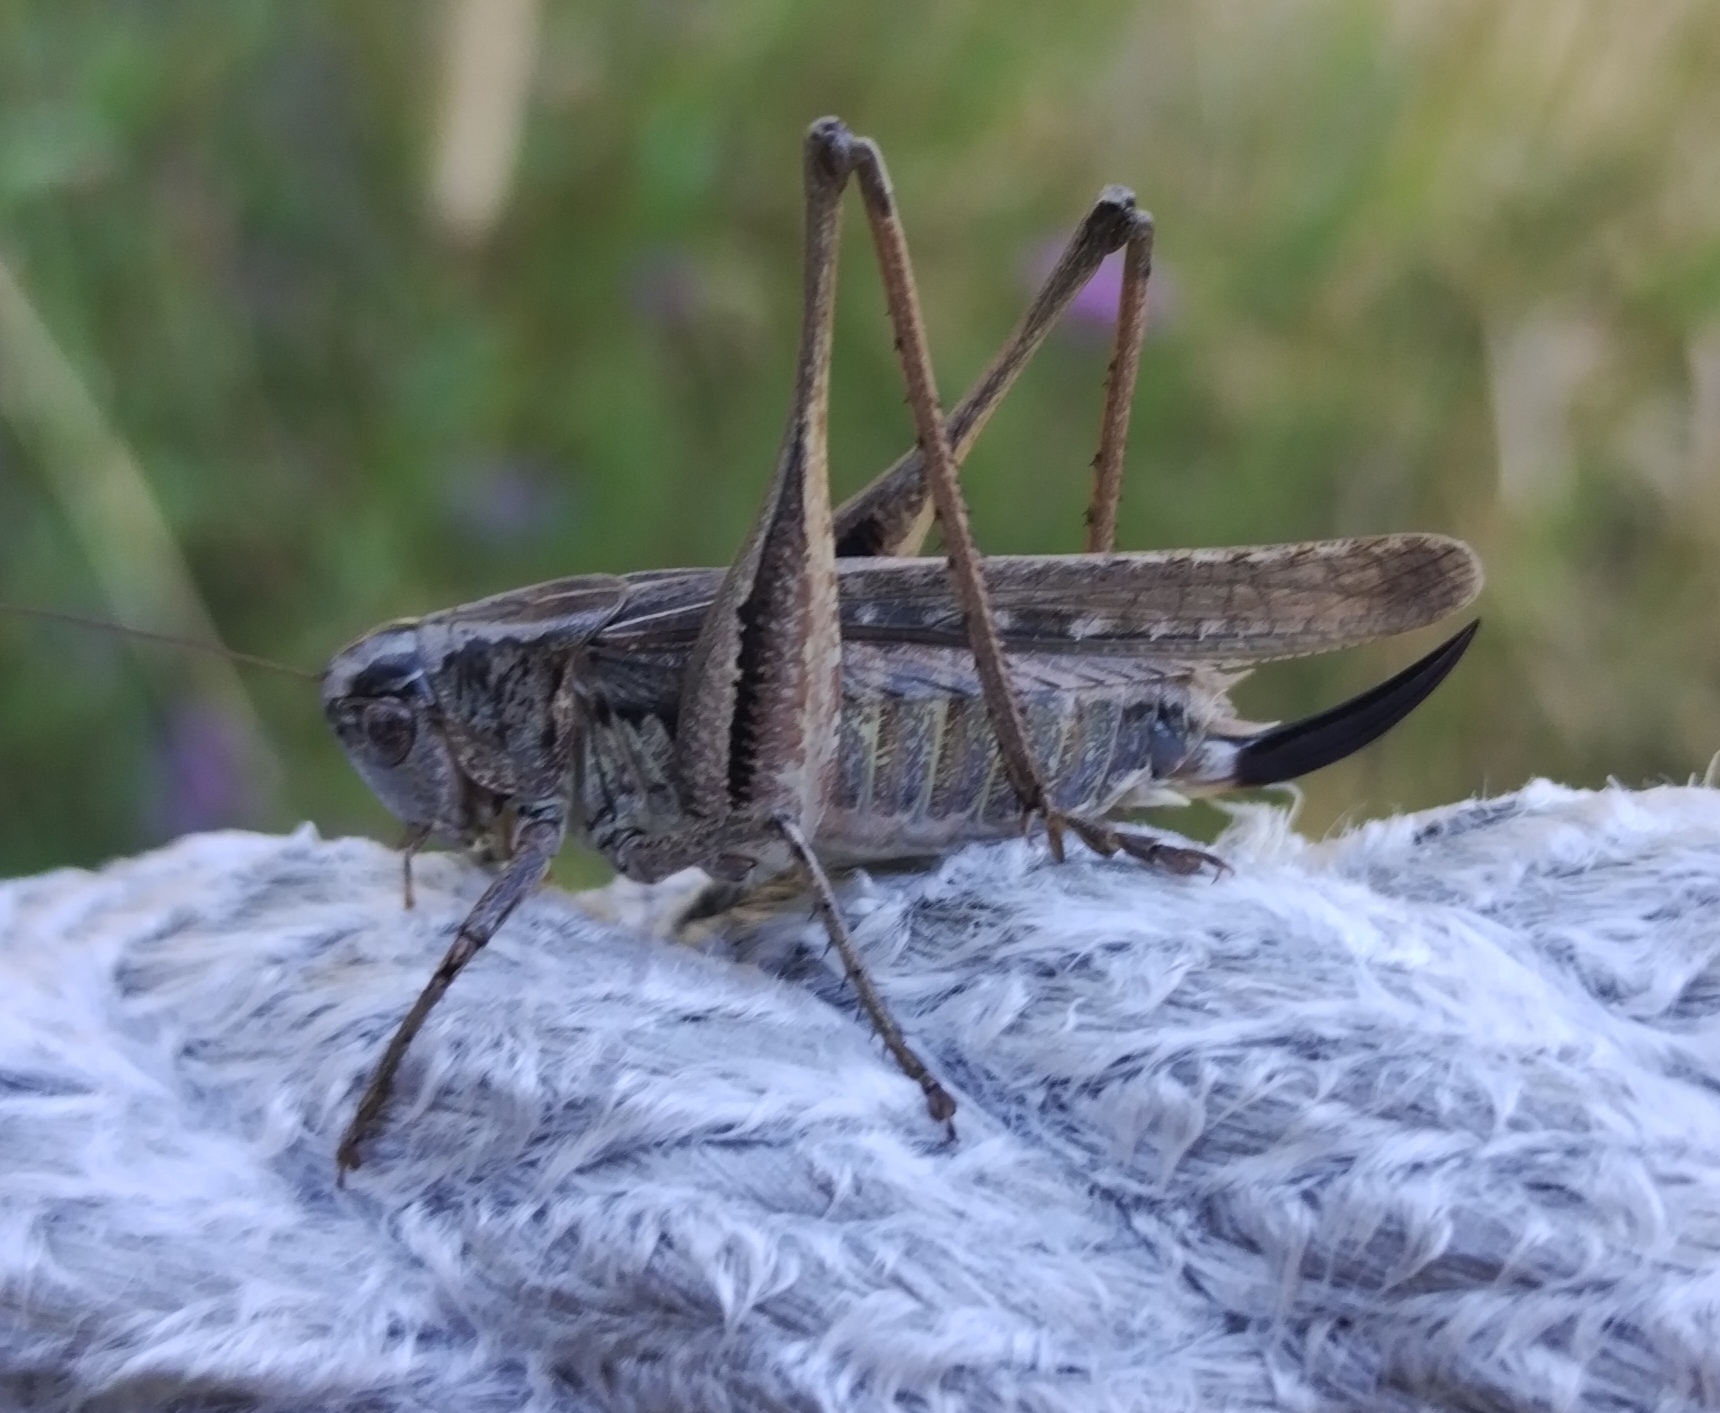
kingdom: Animalia
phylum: Arthropoda
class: Insecta
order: Orthoptera
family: Tettigoniidae
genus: Platycleis
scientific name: Platycleis grisea
